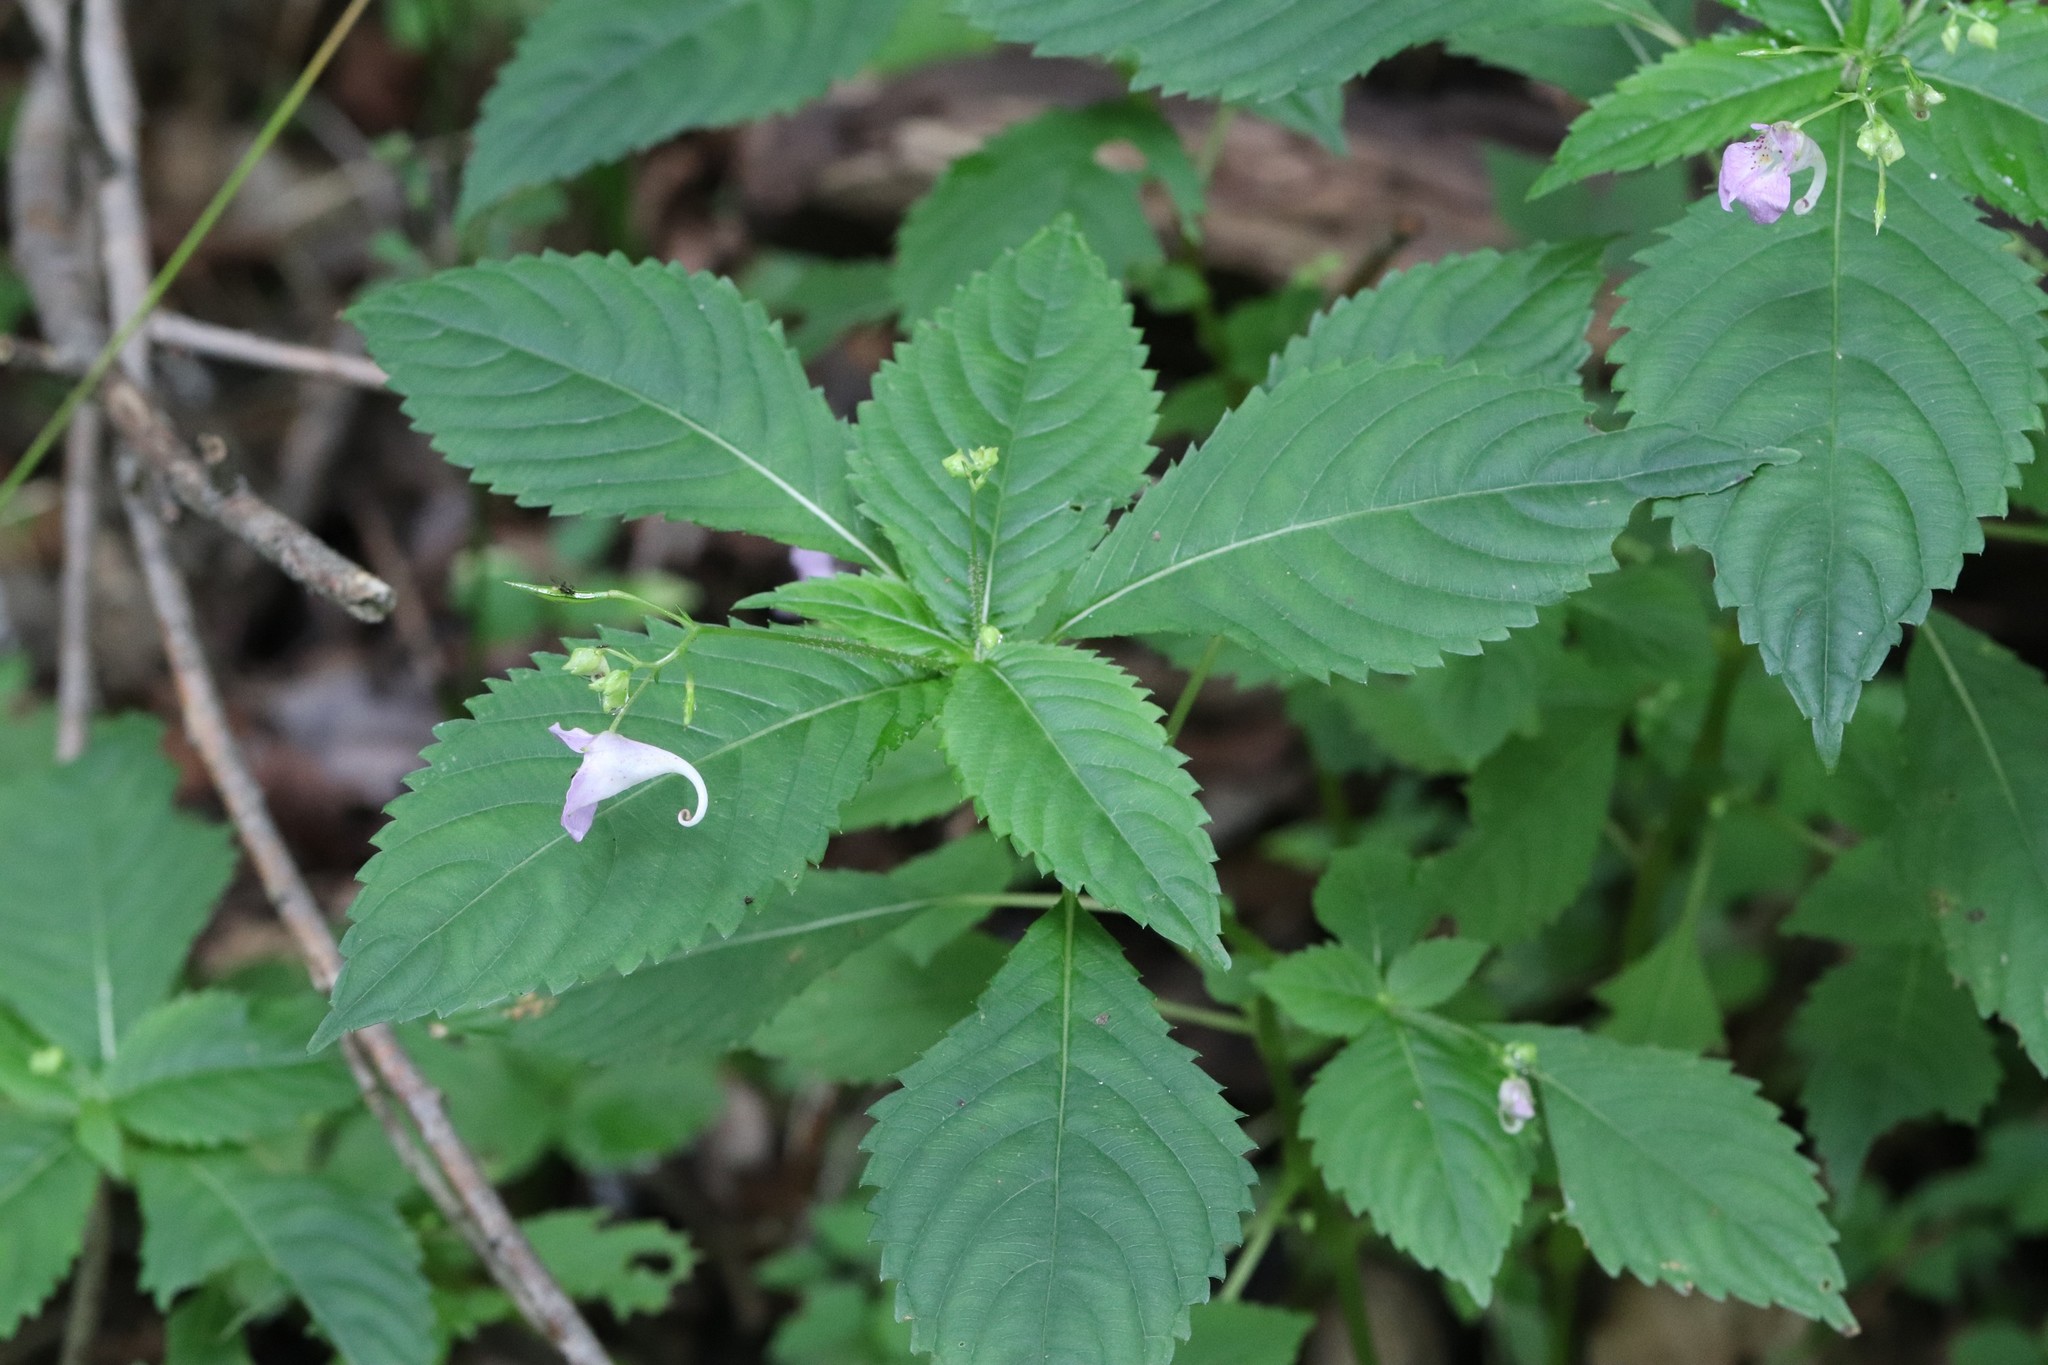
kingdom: Plantae
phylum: Tracheophyta
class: Magnoliopsida
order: Ericales
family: Balsaminaceae
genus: Impatiens
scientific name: Impatiens furcillata
